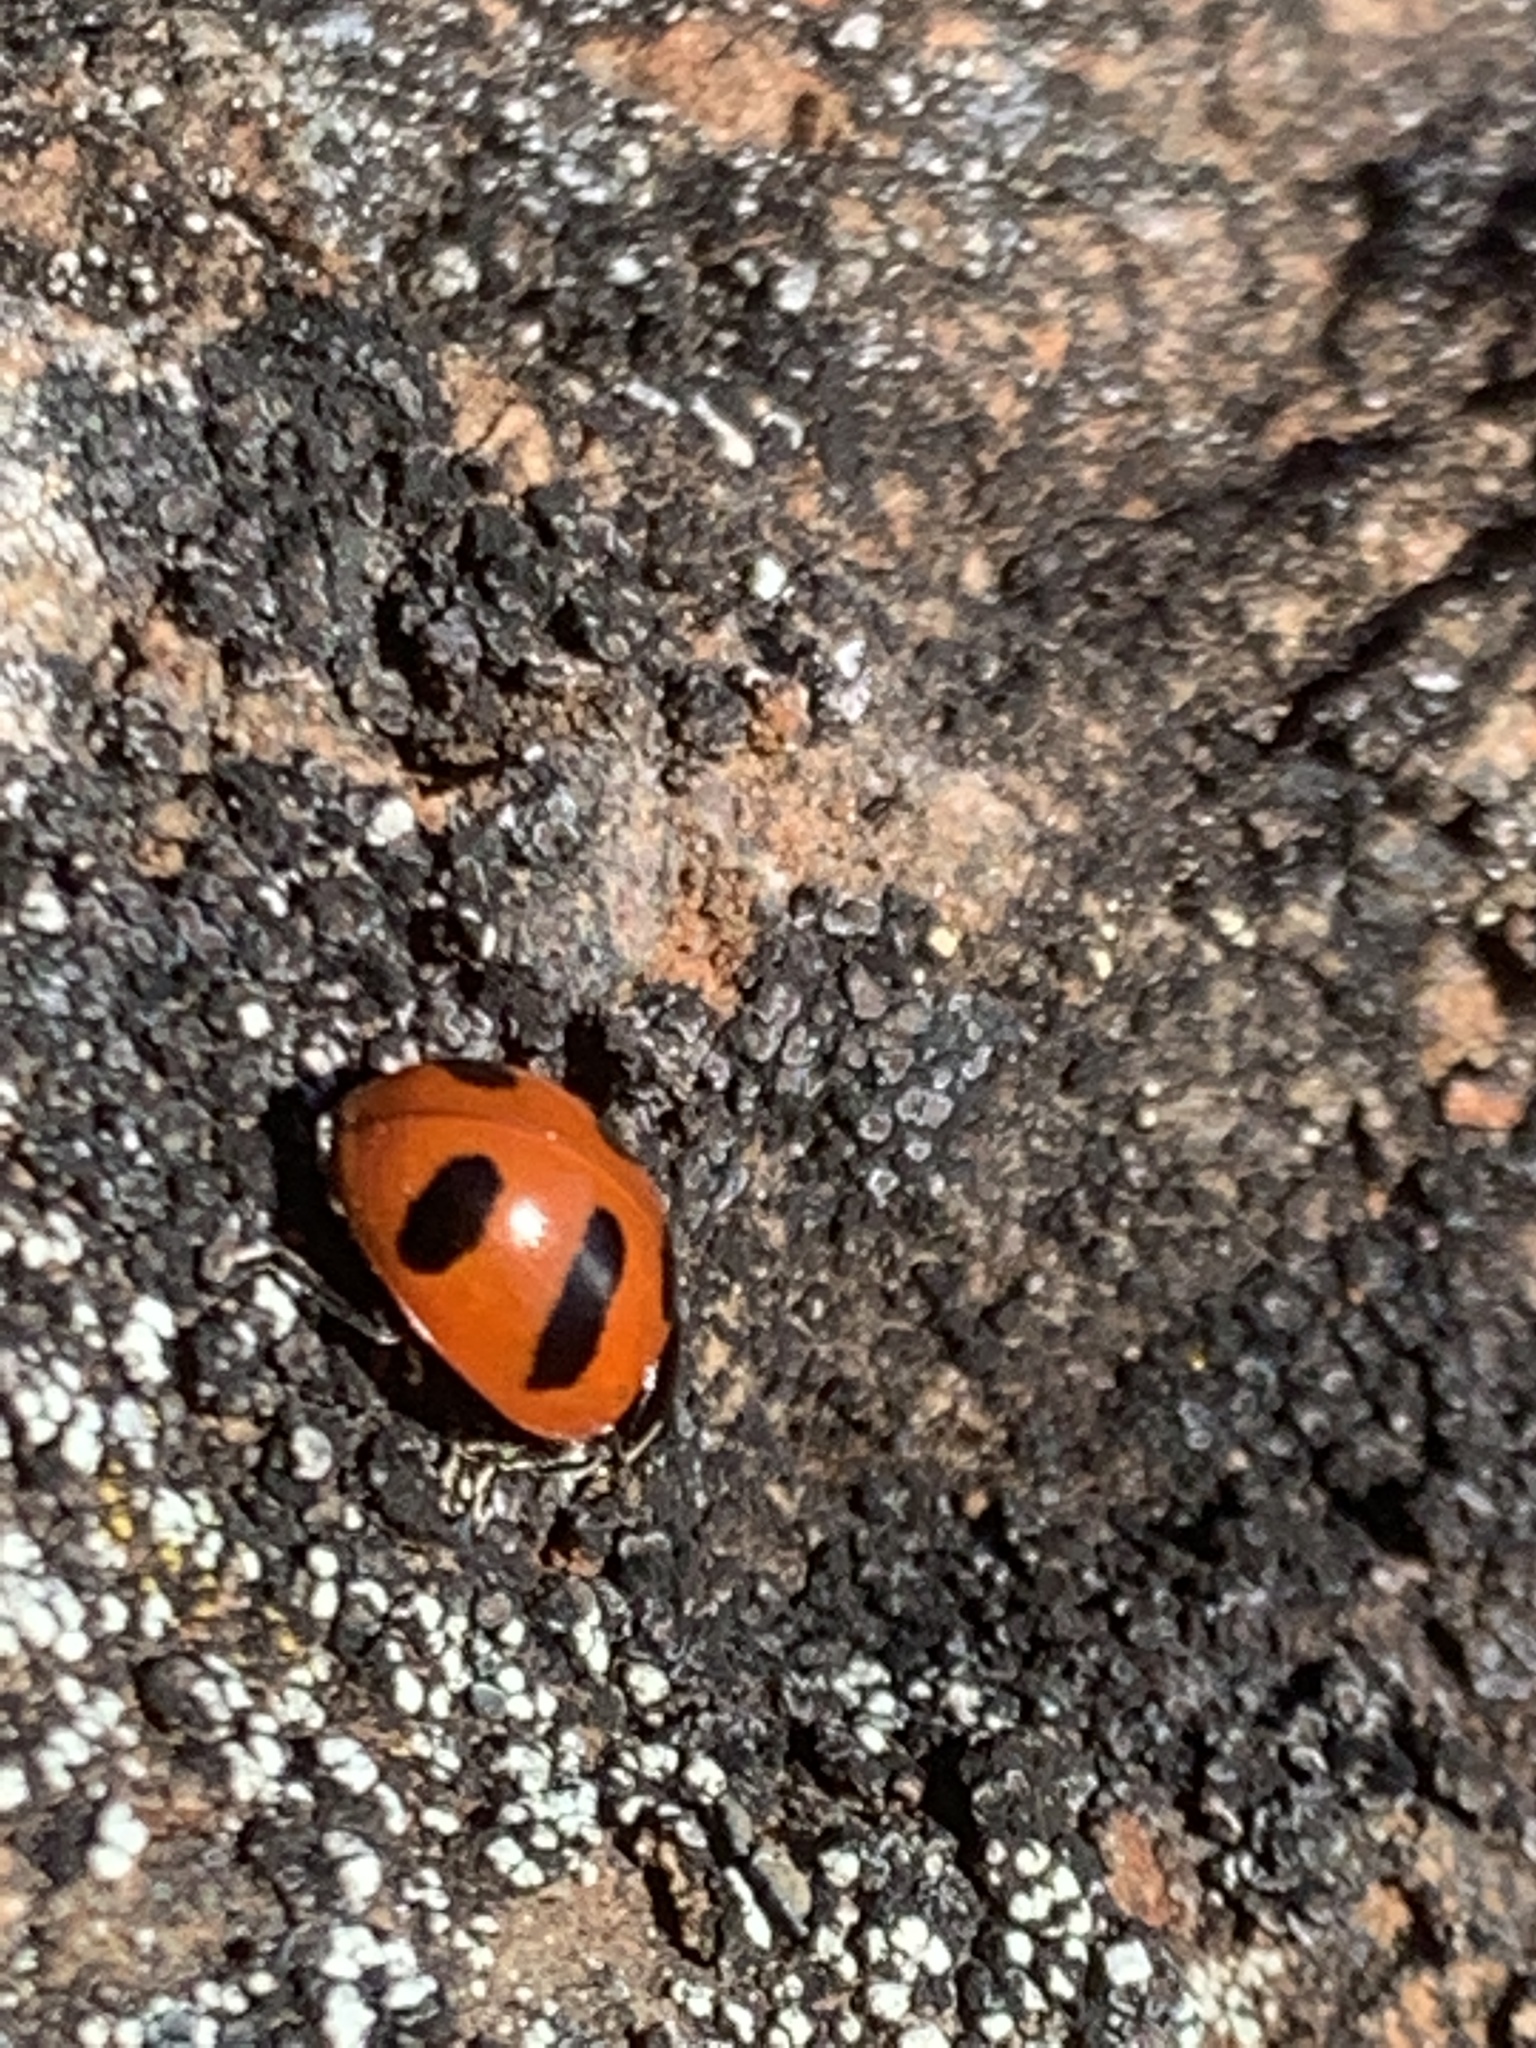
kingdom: Animalia
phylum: Arthropoda
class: Insecta
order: Coleoptera
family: Coccinellidae
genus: Coccinella
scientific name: Coccinella monticola
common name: Mountain lady beetle
